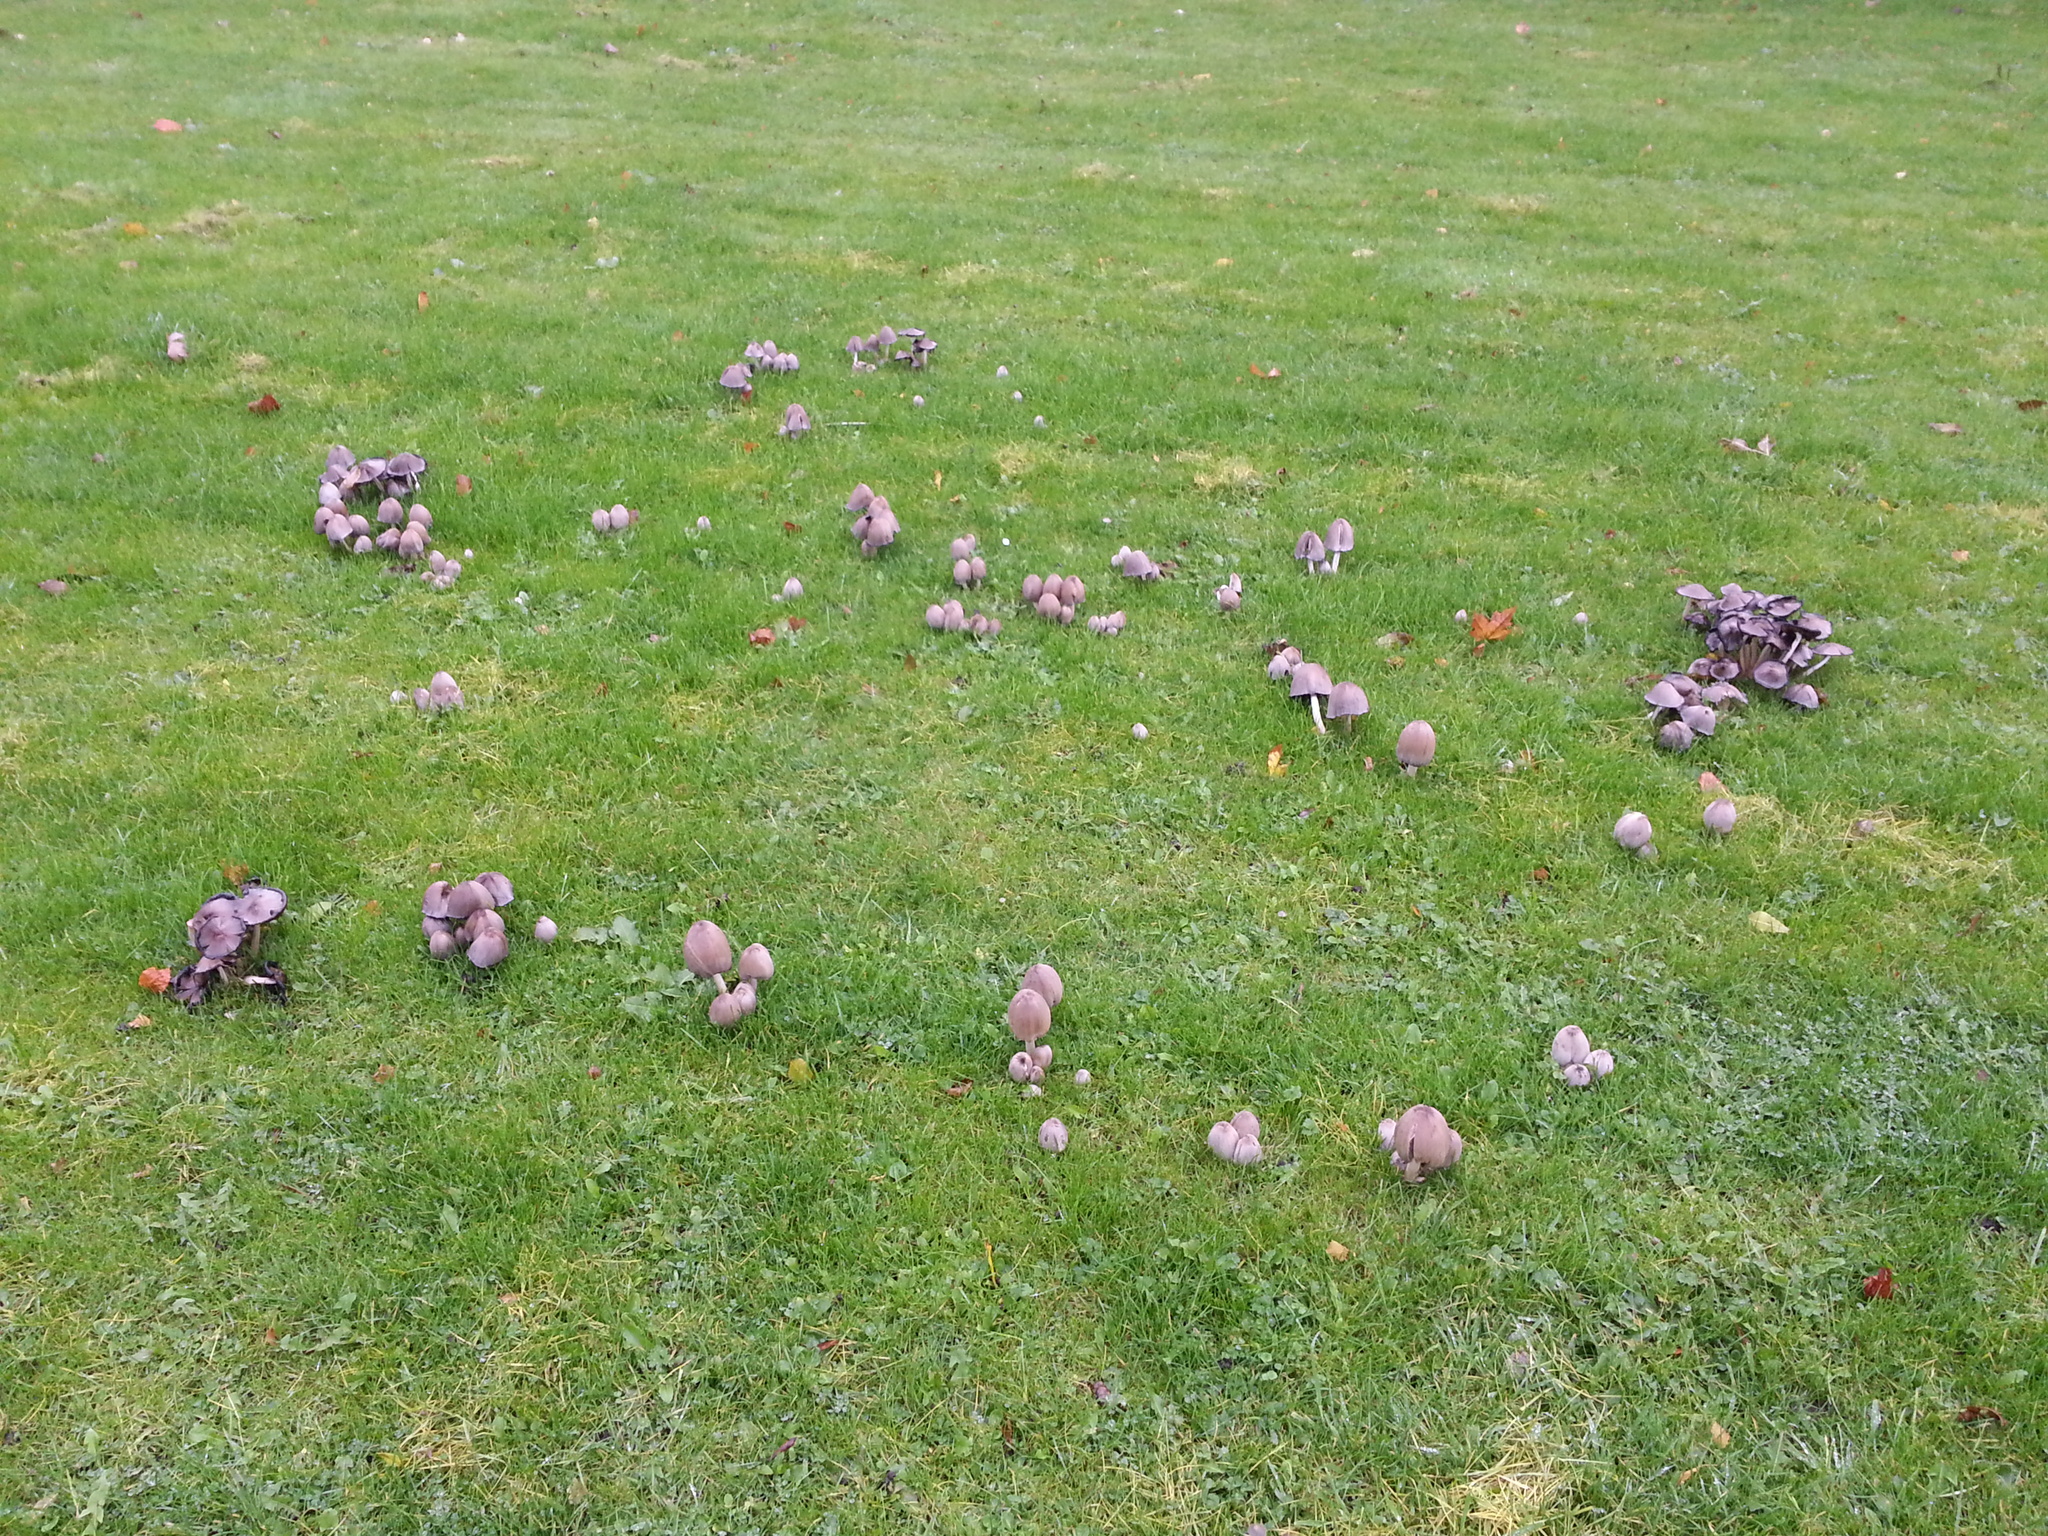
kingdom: Fungi
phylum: Basidiomycota
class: Agaricomycetes
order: Agaricales
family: Psathyrellaceae
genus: Coprinopsis
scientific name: Coprinopsis atramentaria
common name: Common ink-cap
